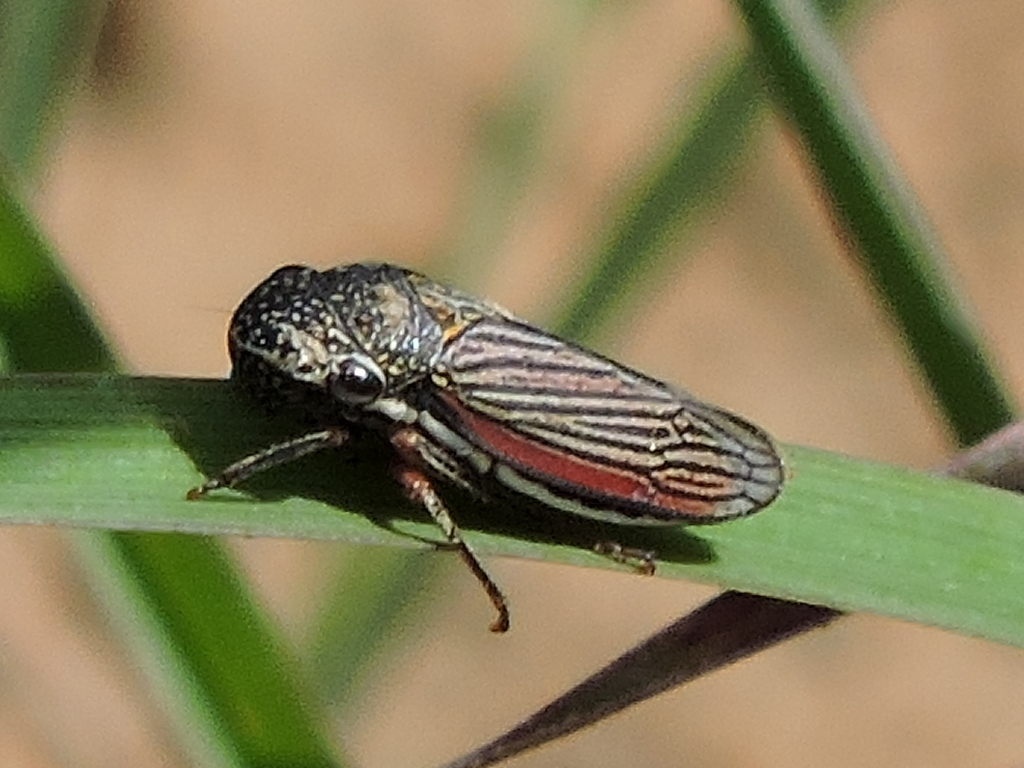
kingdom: Animalia
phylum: Arthropoda
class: Insecta
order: Hemiptera
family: Cicadellidae
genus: Cuerna
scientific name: Cuerna costalis
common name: Lateral-lined sharpshooter
